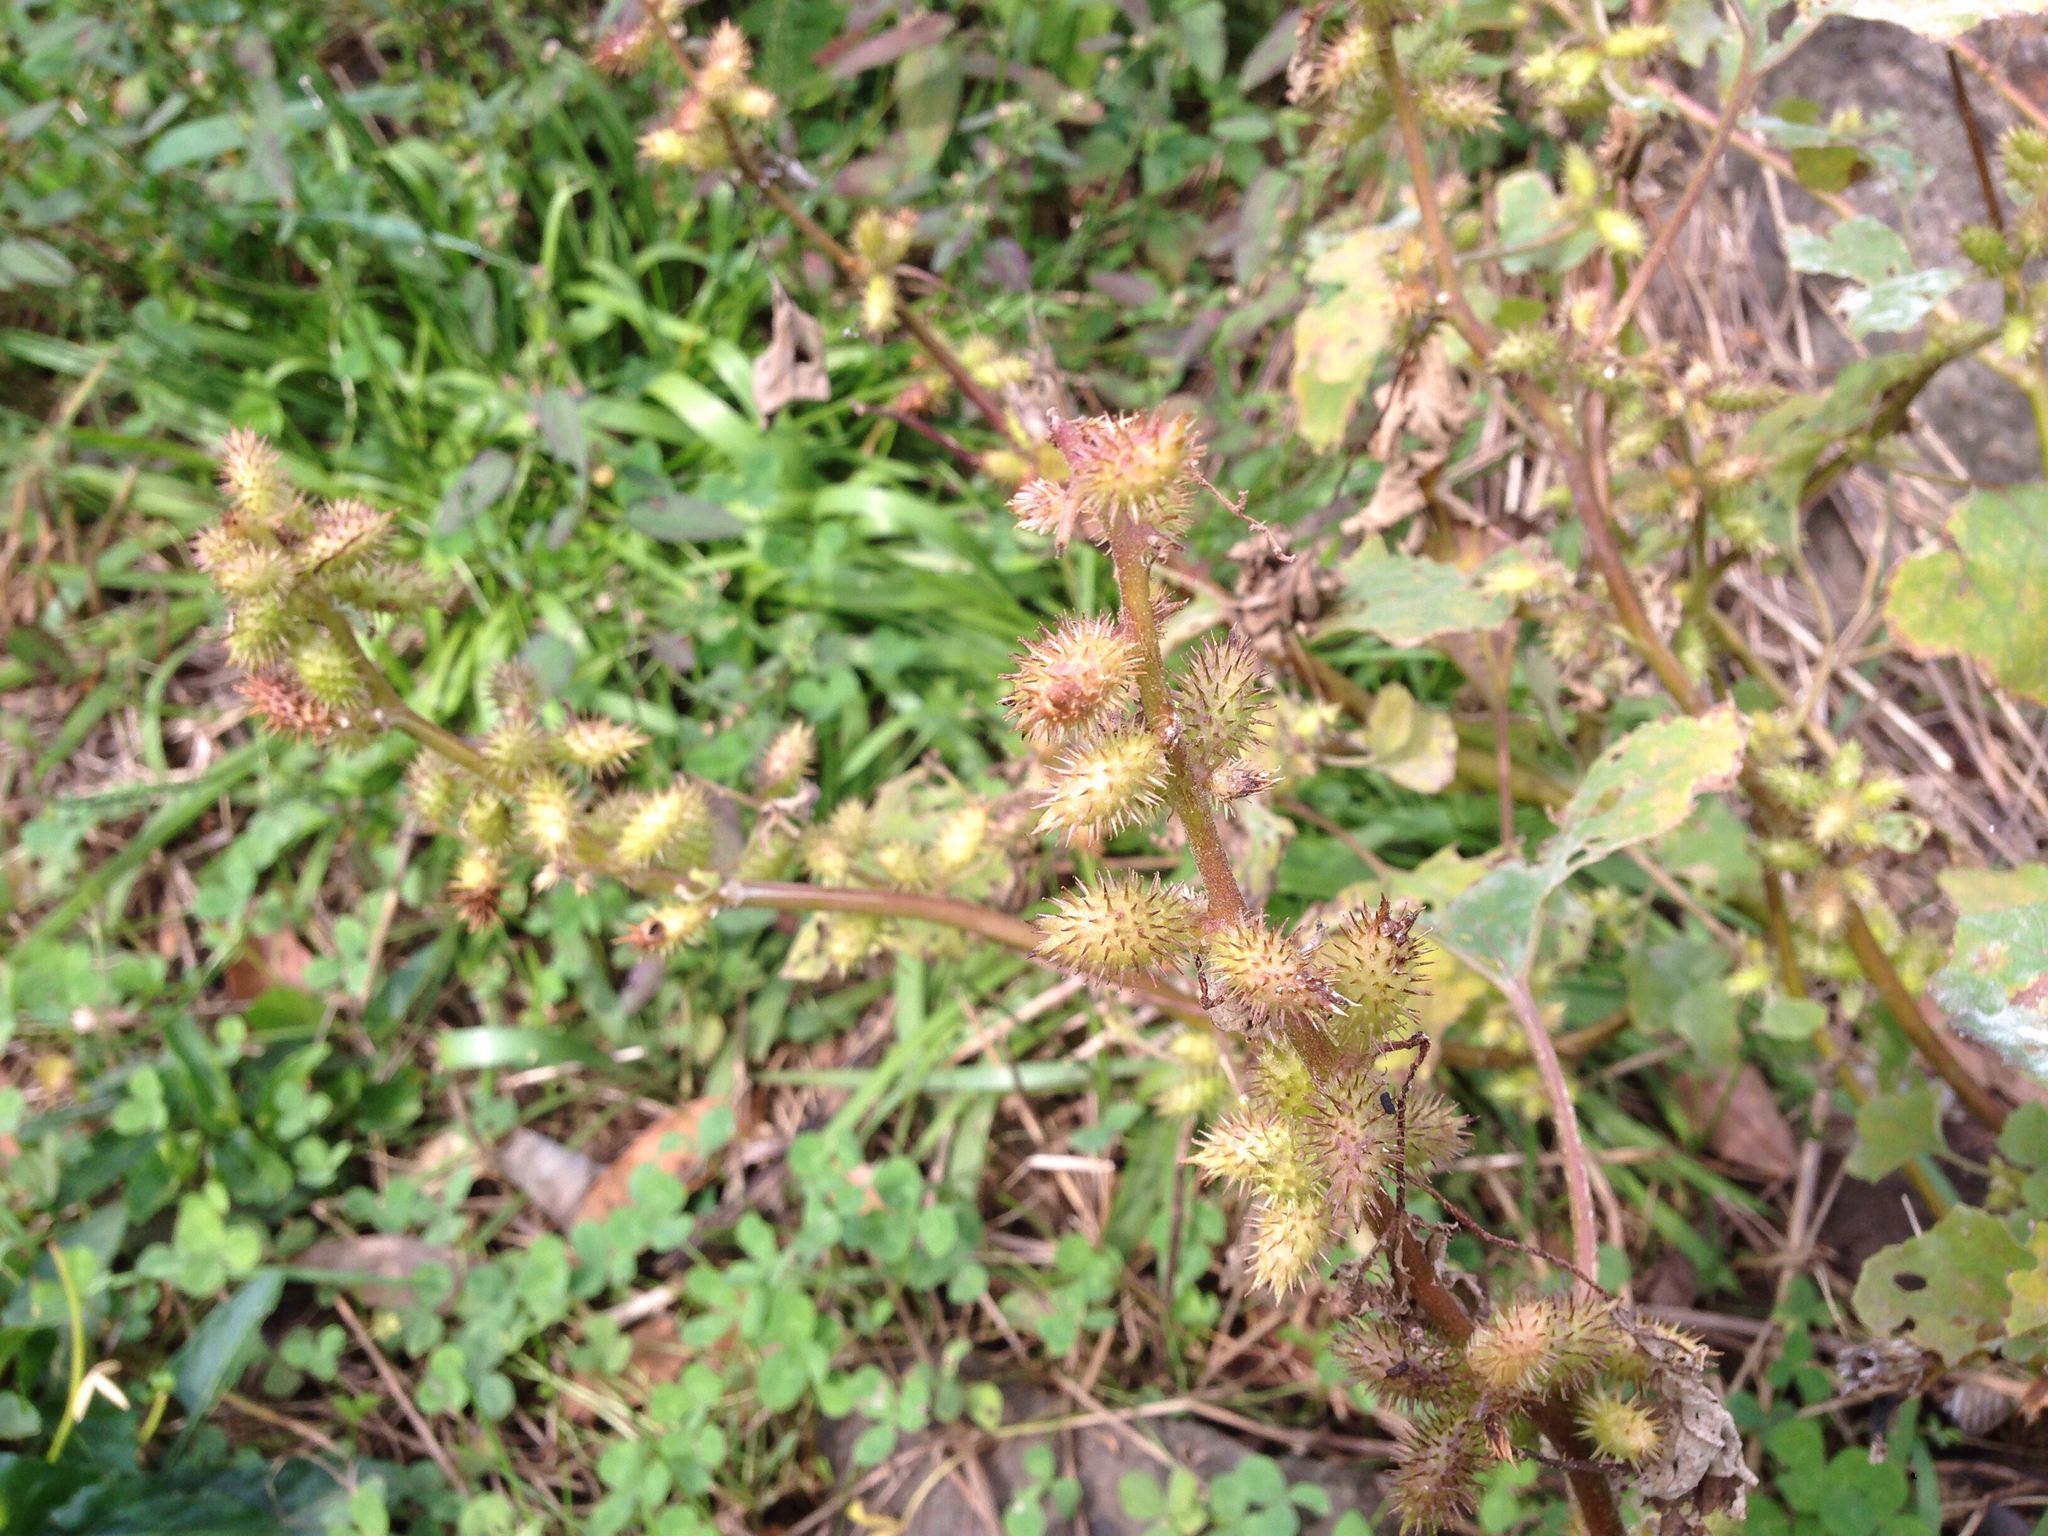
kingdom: Plantae
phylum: Tracheophyta
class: Magnoliopsida
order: Asterales
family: Asteraceae
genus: Xanthium
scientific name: Xanthium strumarium
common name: Rough cocklebur
